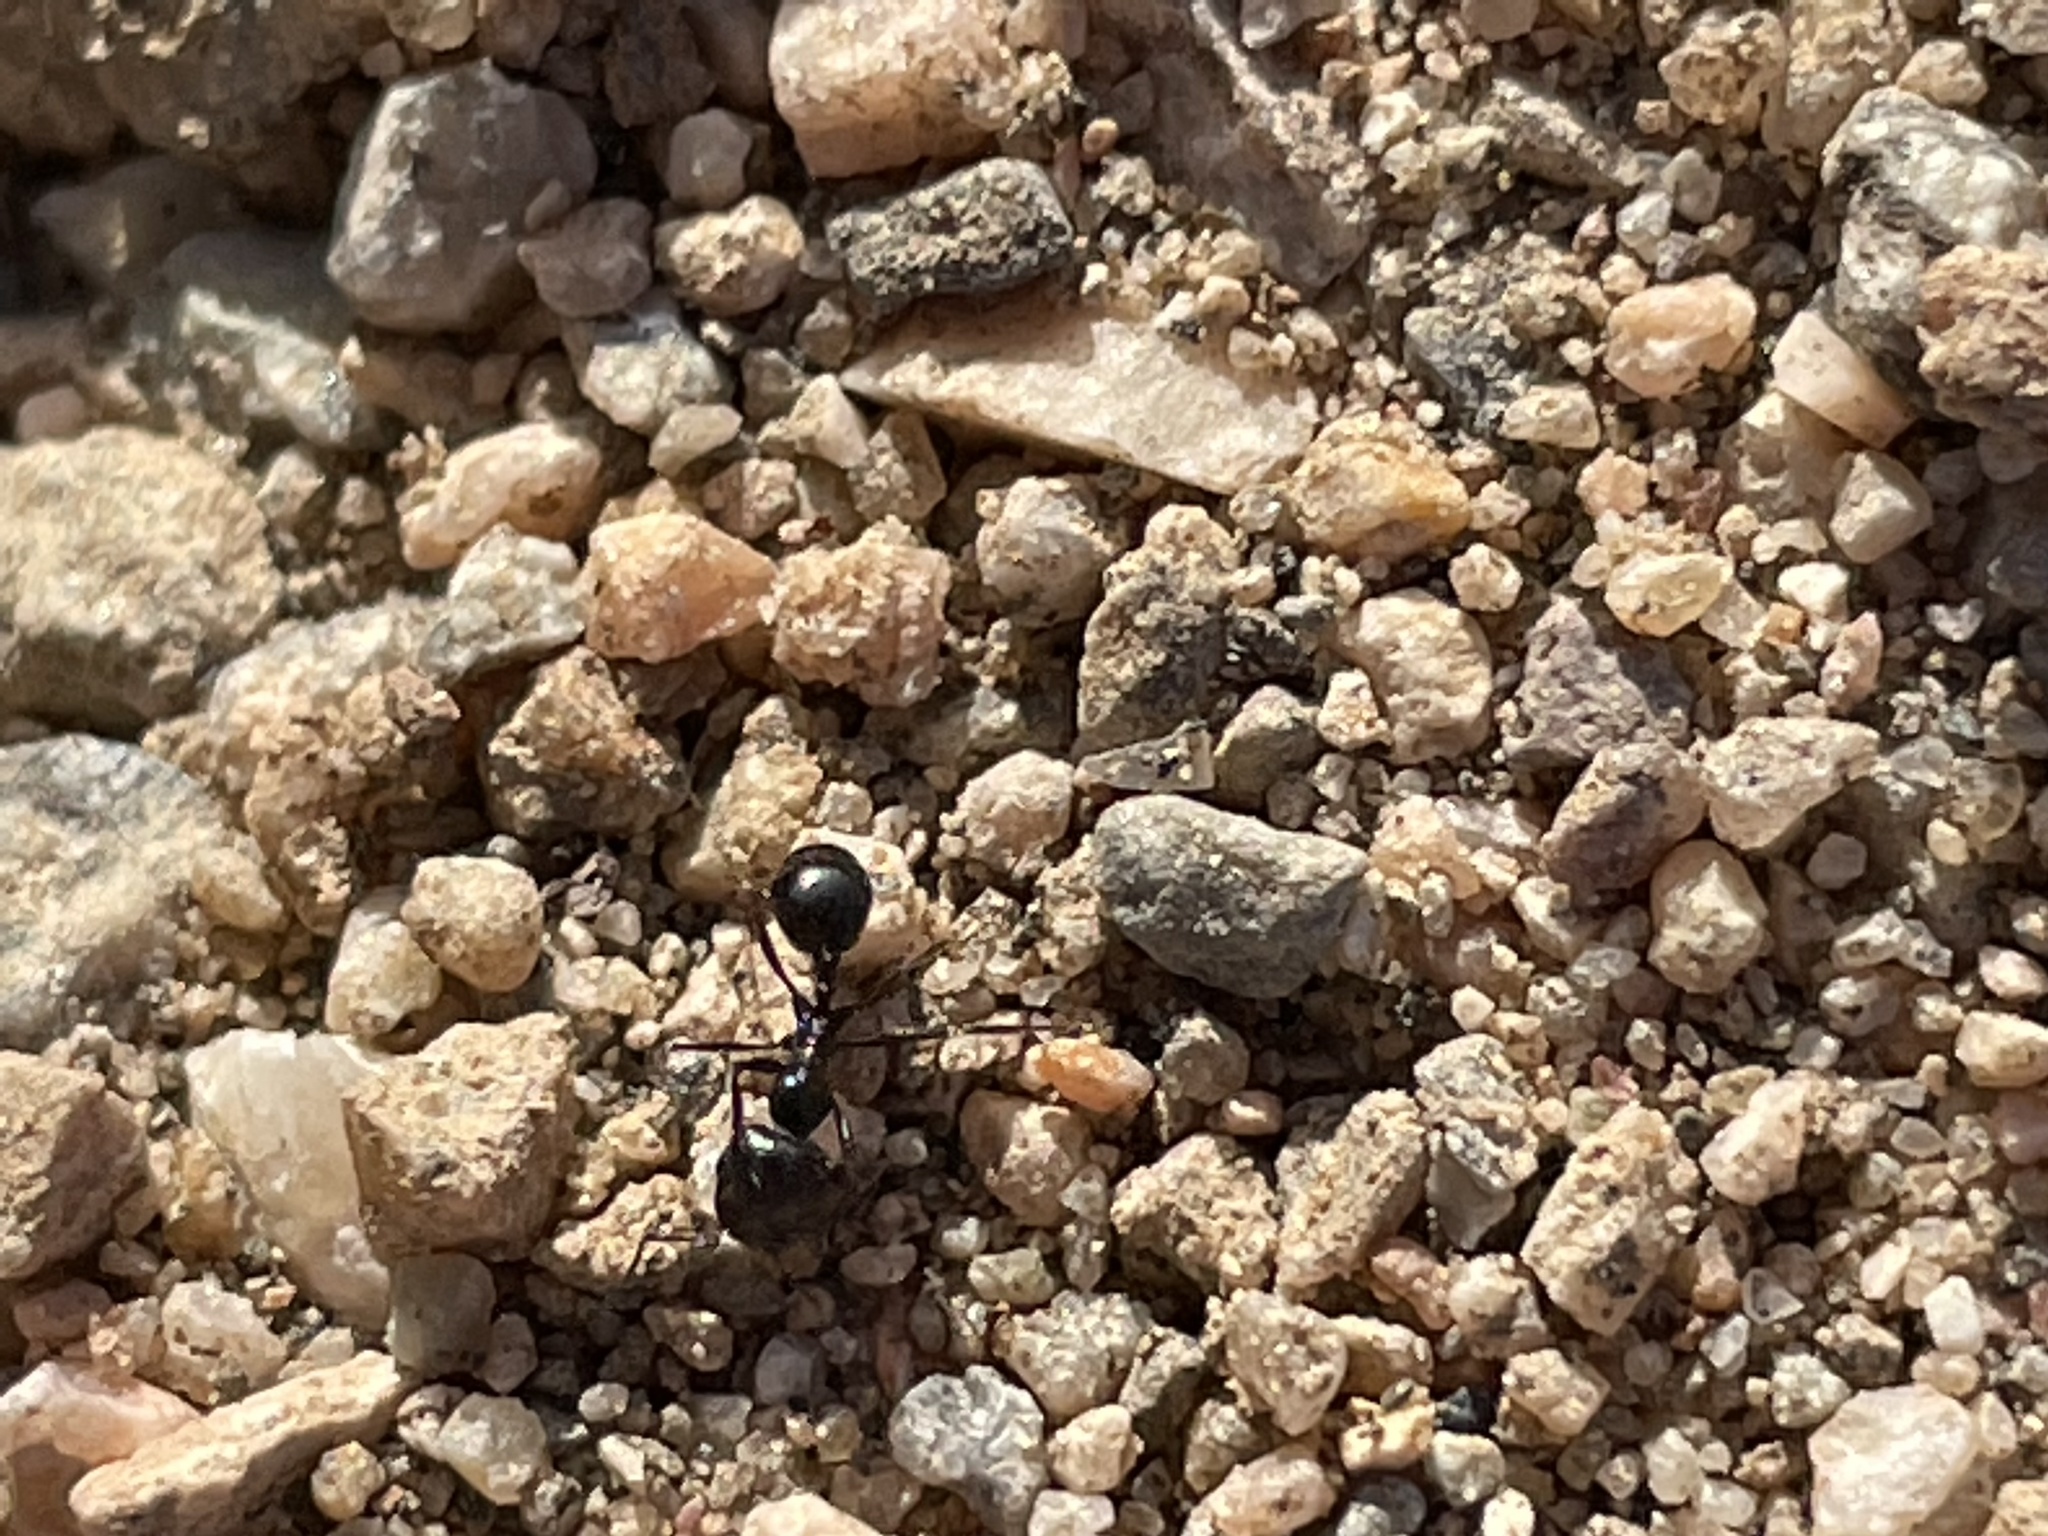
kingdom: Animalia
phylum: Arthropoda
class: Insecta
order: Hymenoptera
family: Formicidae
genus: Messor
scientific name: Messor pergandei
